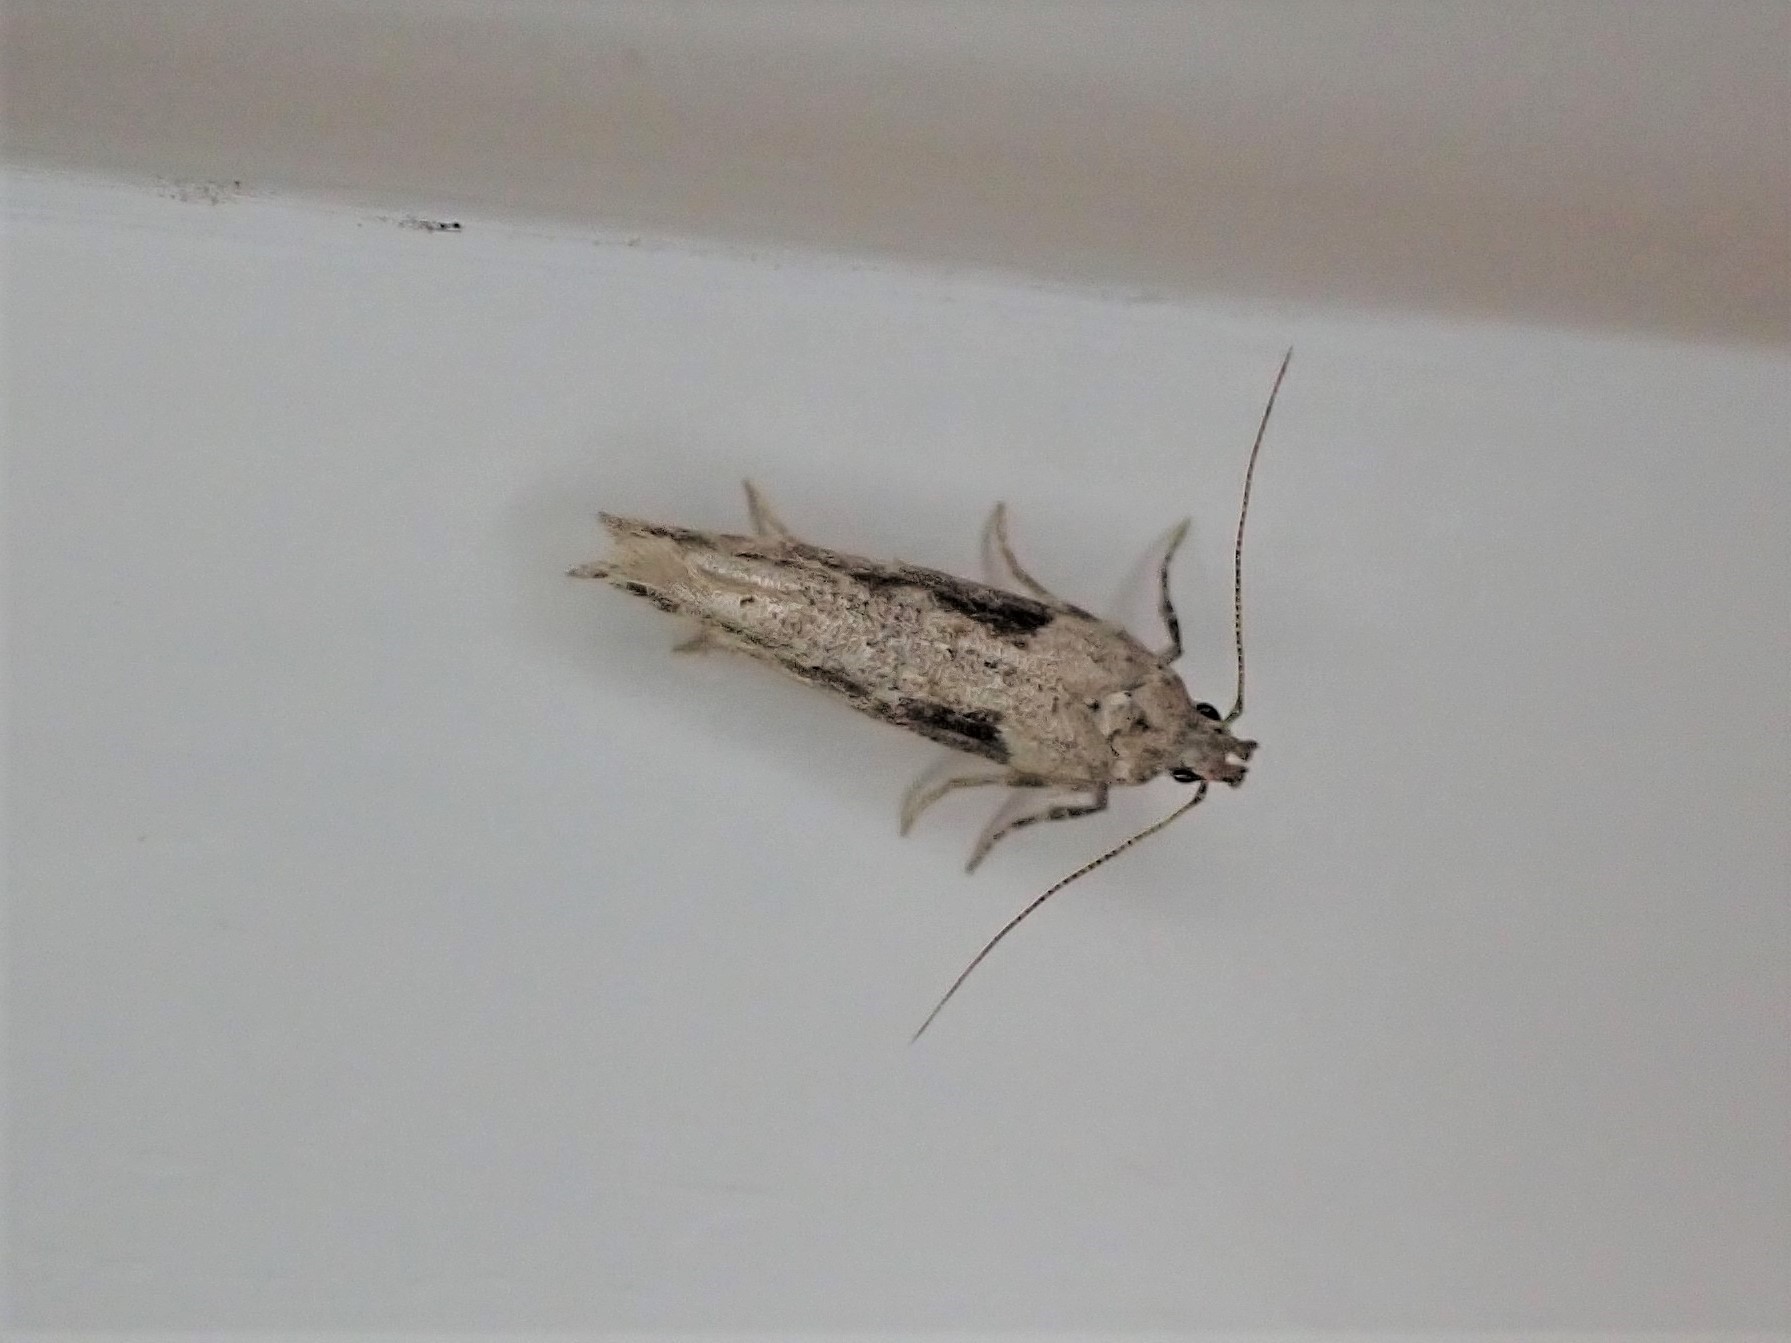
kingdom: Animalia
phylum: Arthropoda
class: Insecta
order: Lepidoptera
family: Gelechiidae
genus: Symmetrischema
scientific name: Symmetrischema tangolias
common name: Moth
